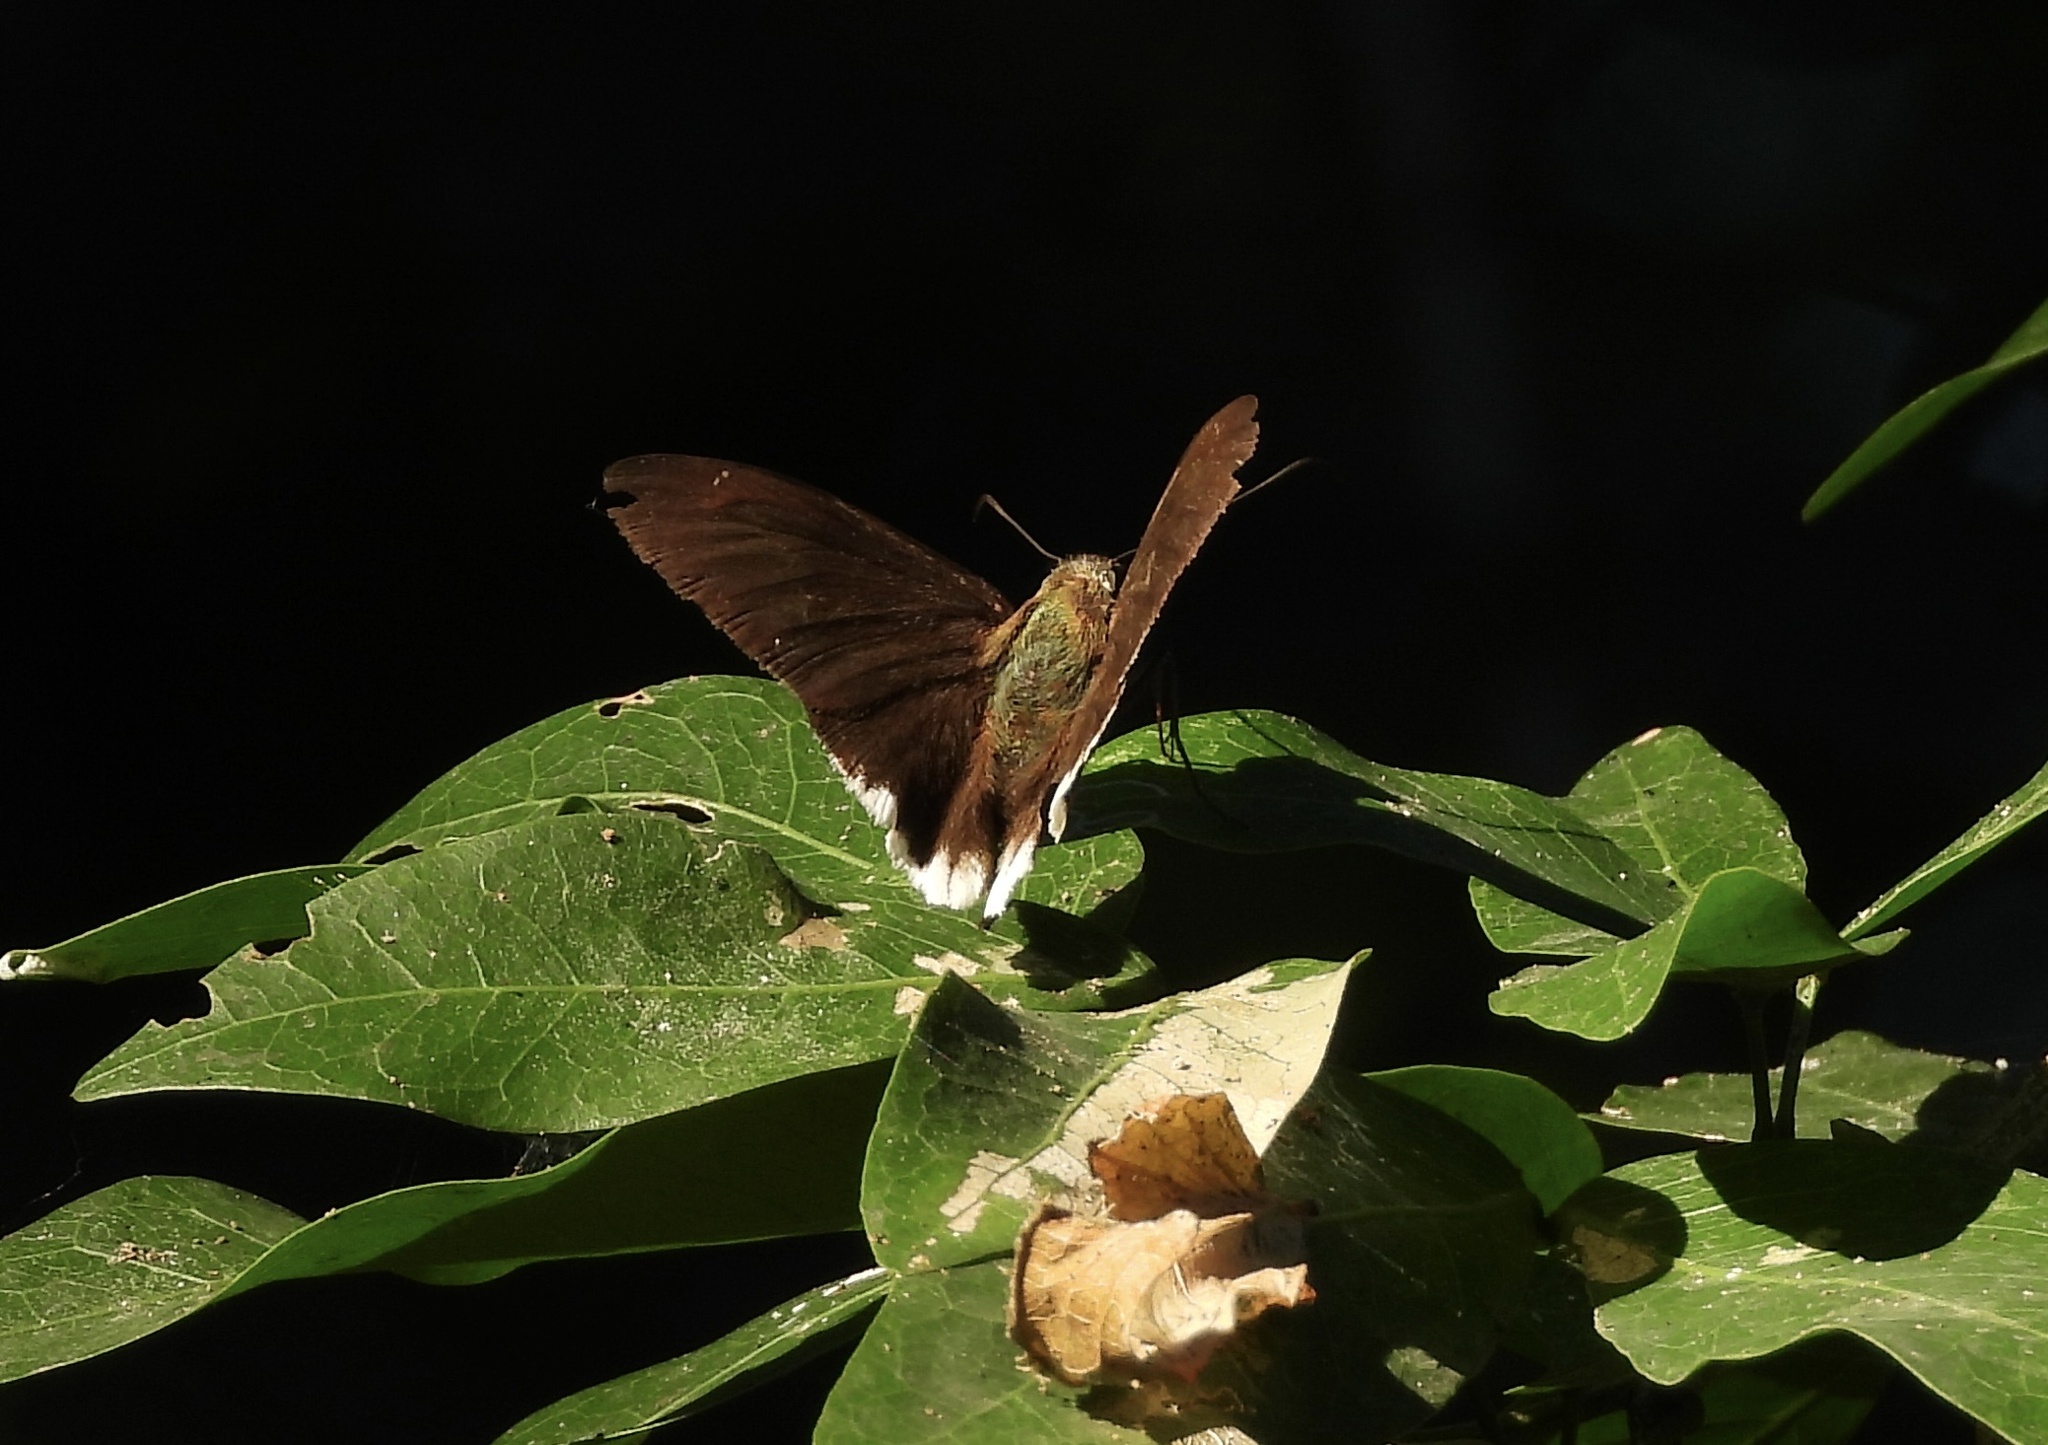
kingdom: Animalia
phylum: Arthropoda
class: Insecta
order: Lepidoptera
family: Hesperiidae
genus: Achalarus
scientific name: Achalarus
